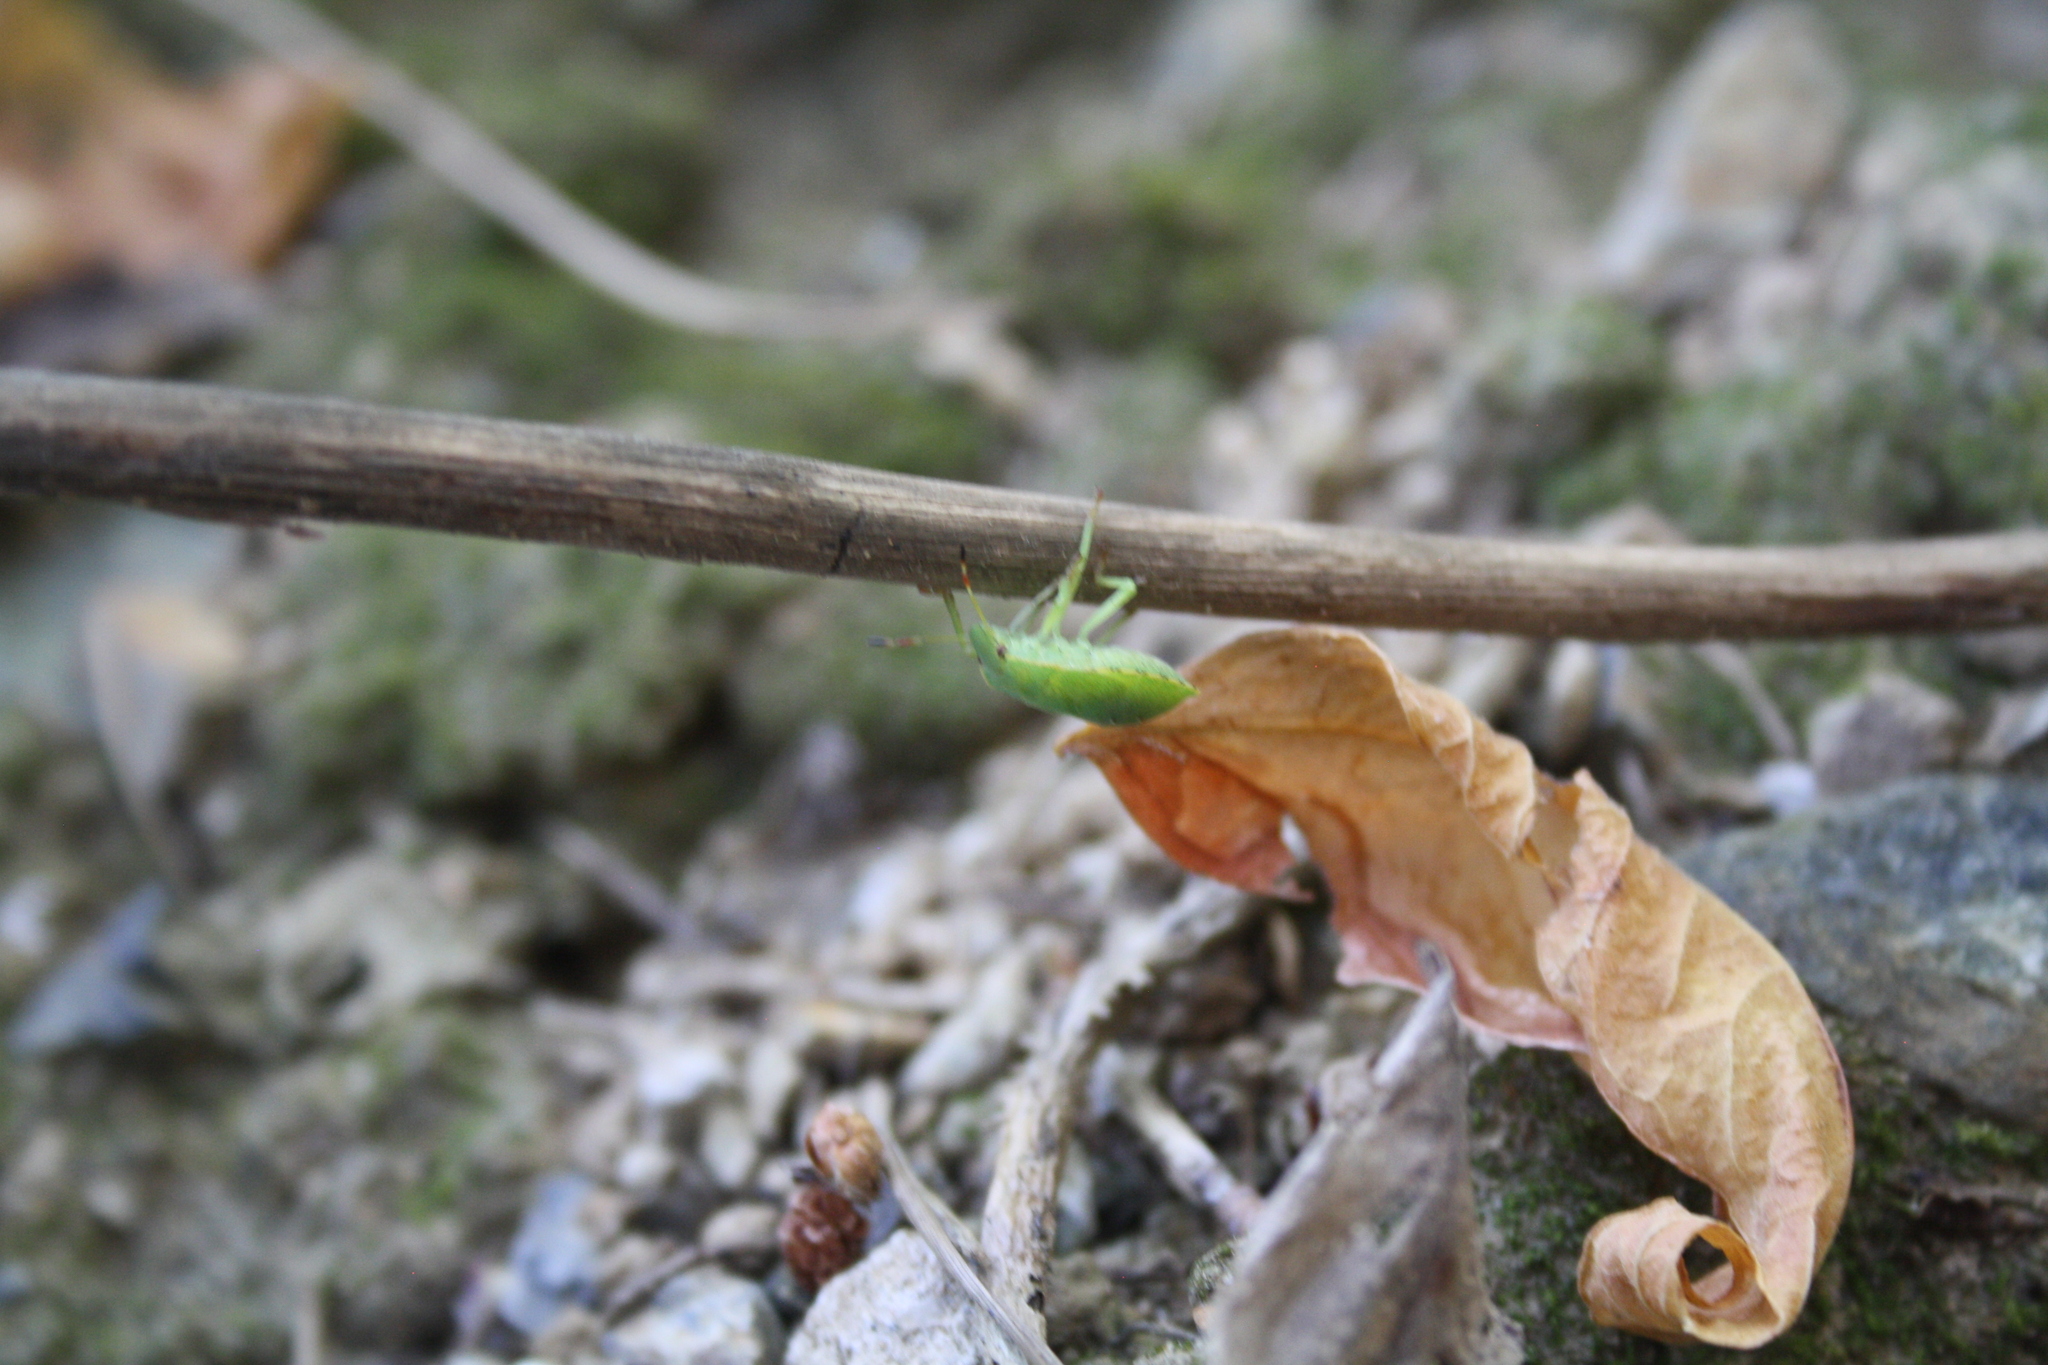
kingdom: Animalia
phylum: Arthropoda
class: Insecta
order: Hemiptera
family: Pentatomidae
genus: Palomena
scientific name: Palomena prasina
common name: Green shieldbug
